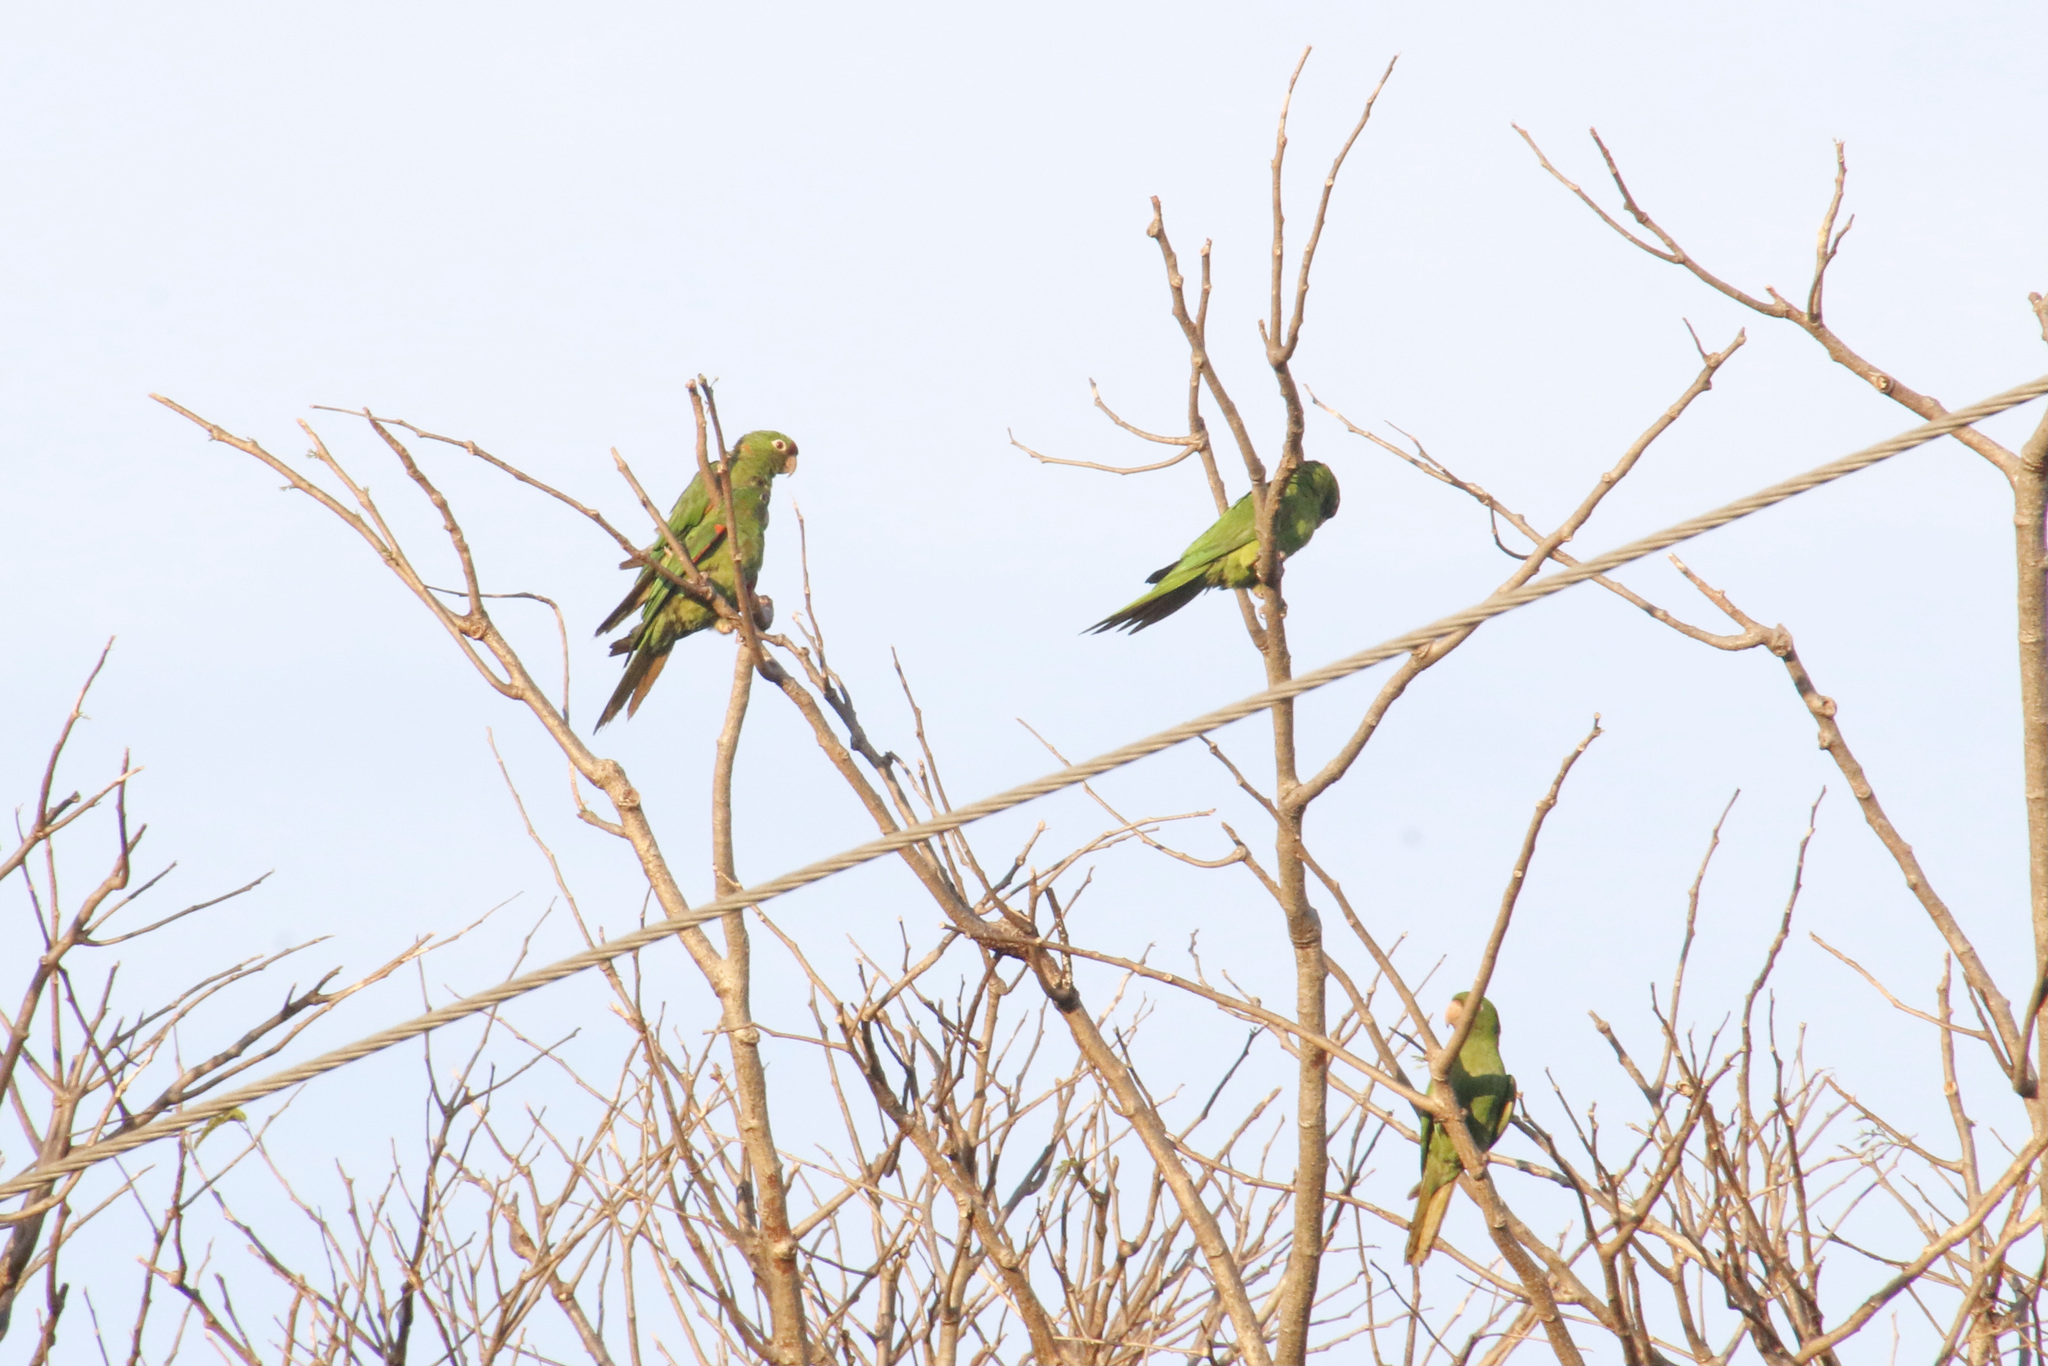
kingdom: Animalia
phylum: Chordata
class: Aves
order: Psittaciformes
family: Psittacidae
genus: Aratinga
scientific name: Aratinga finschi
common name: Crimson-fronted parakeet
